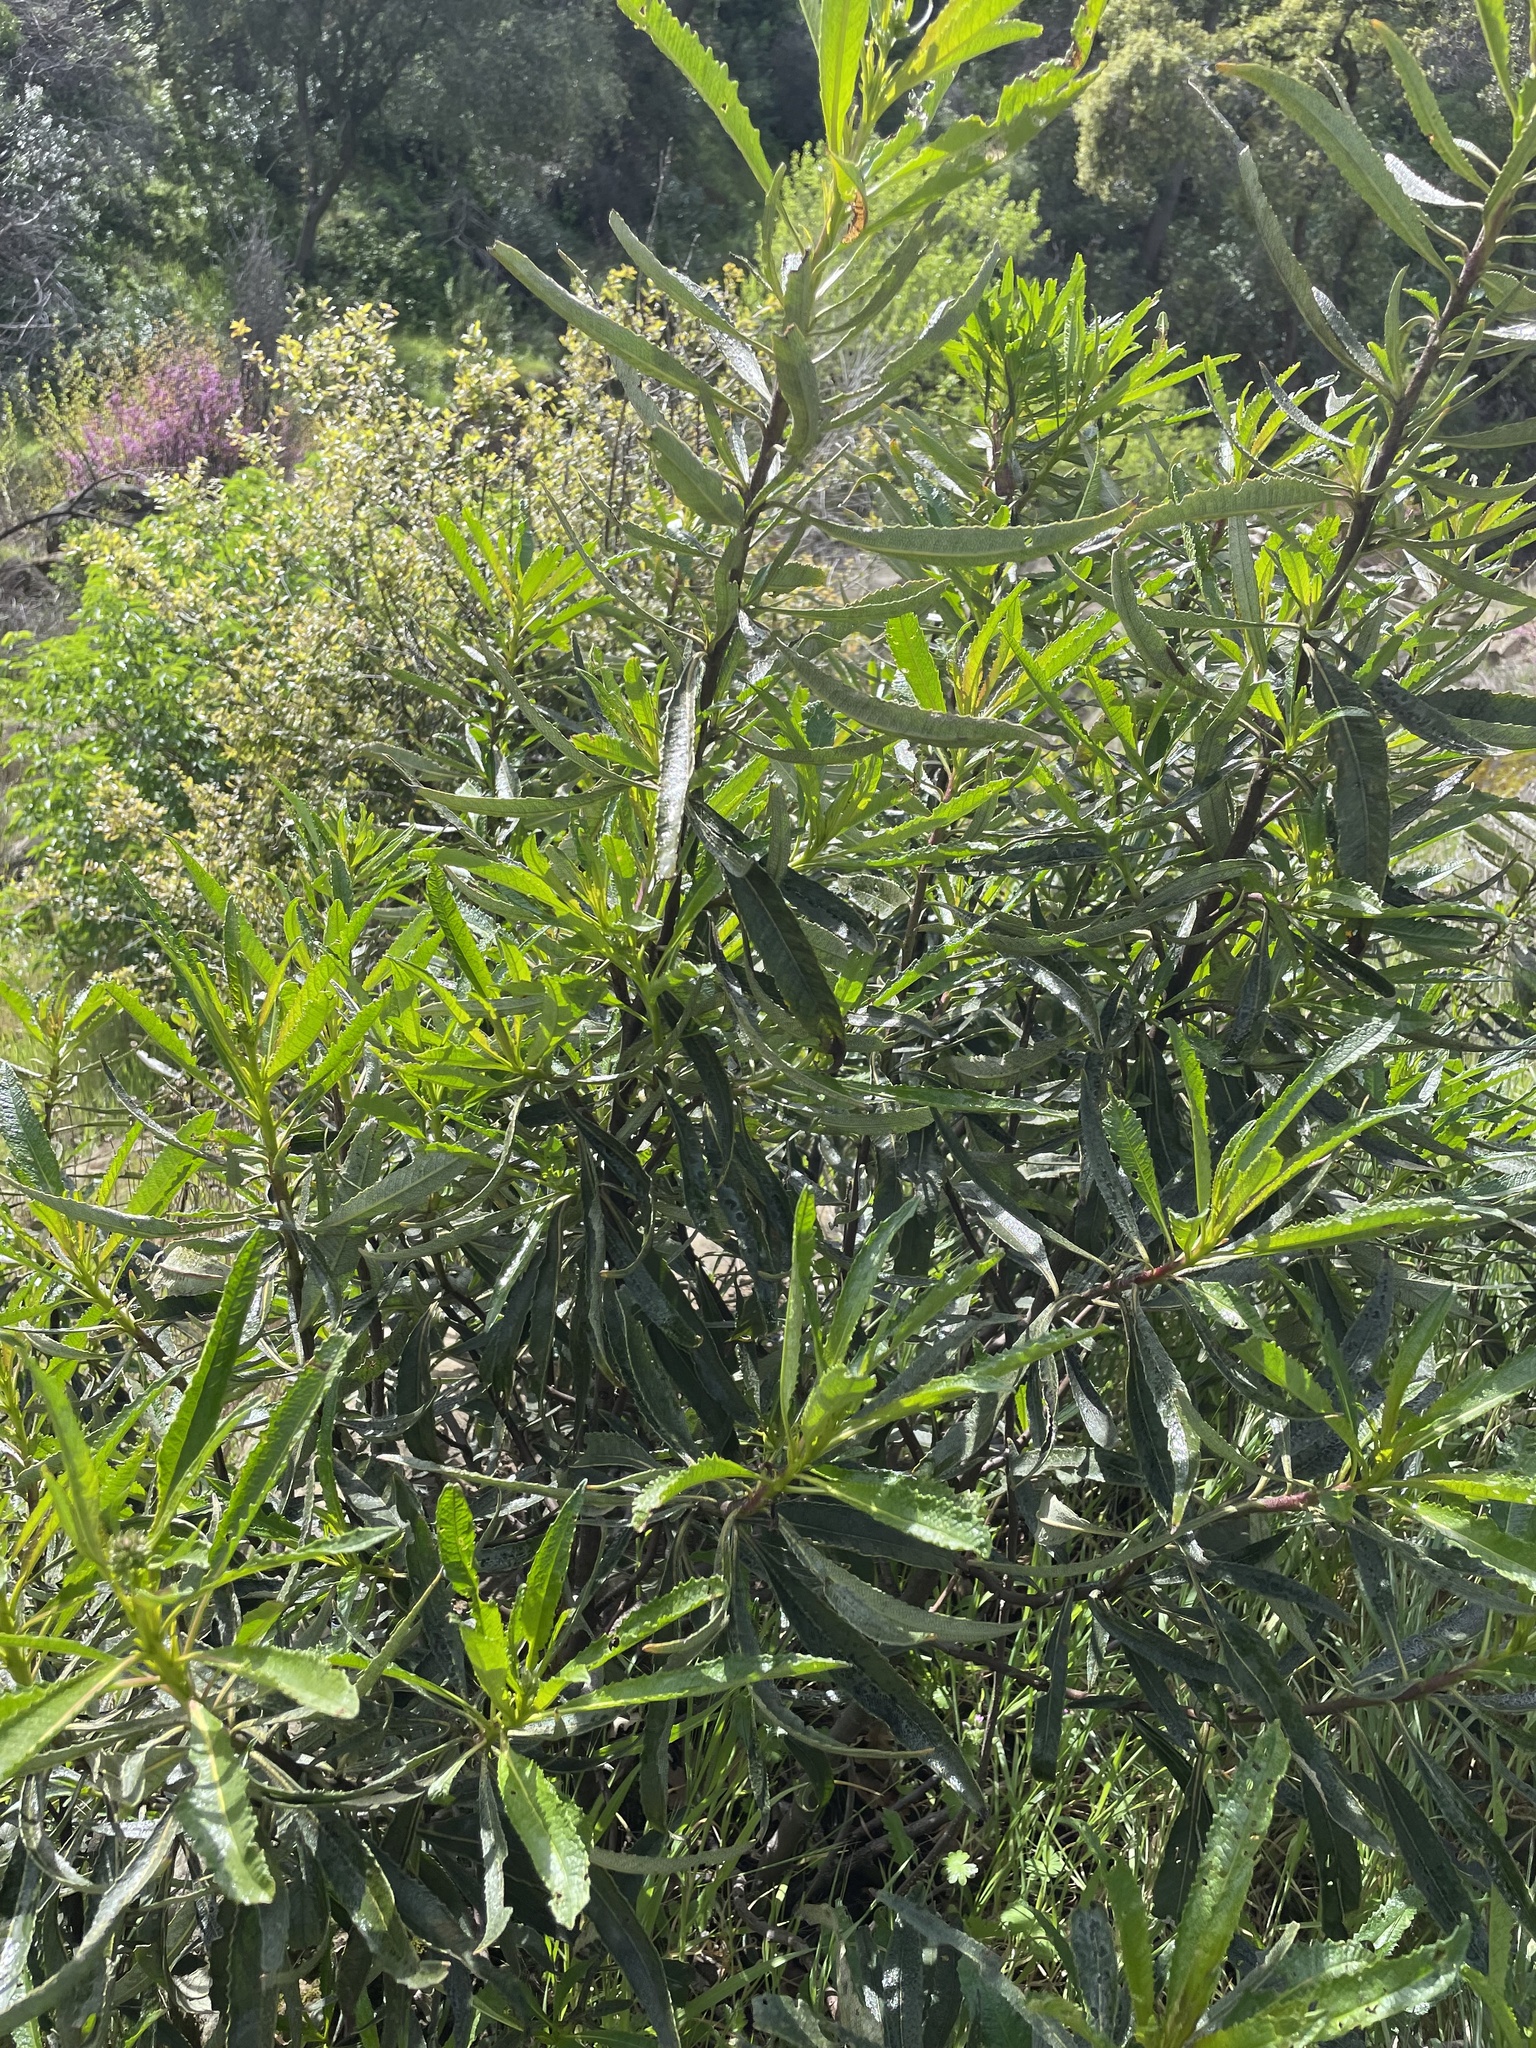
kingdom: Plantae
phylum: Tracheophyta
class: Magnoliopsida
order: Boraginales
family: Namaceae
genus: Eriodictyon
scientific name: Eriodictyon californicum
